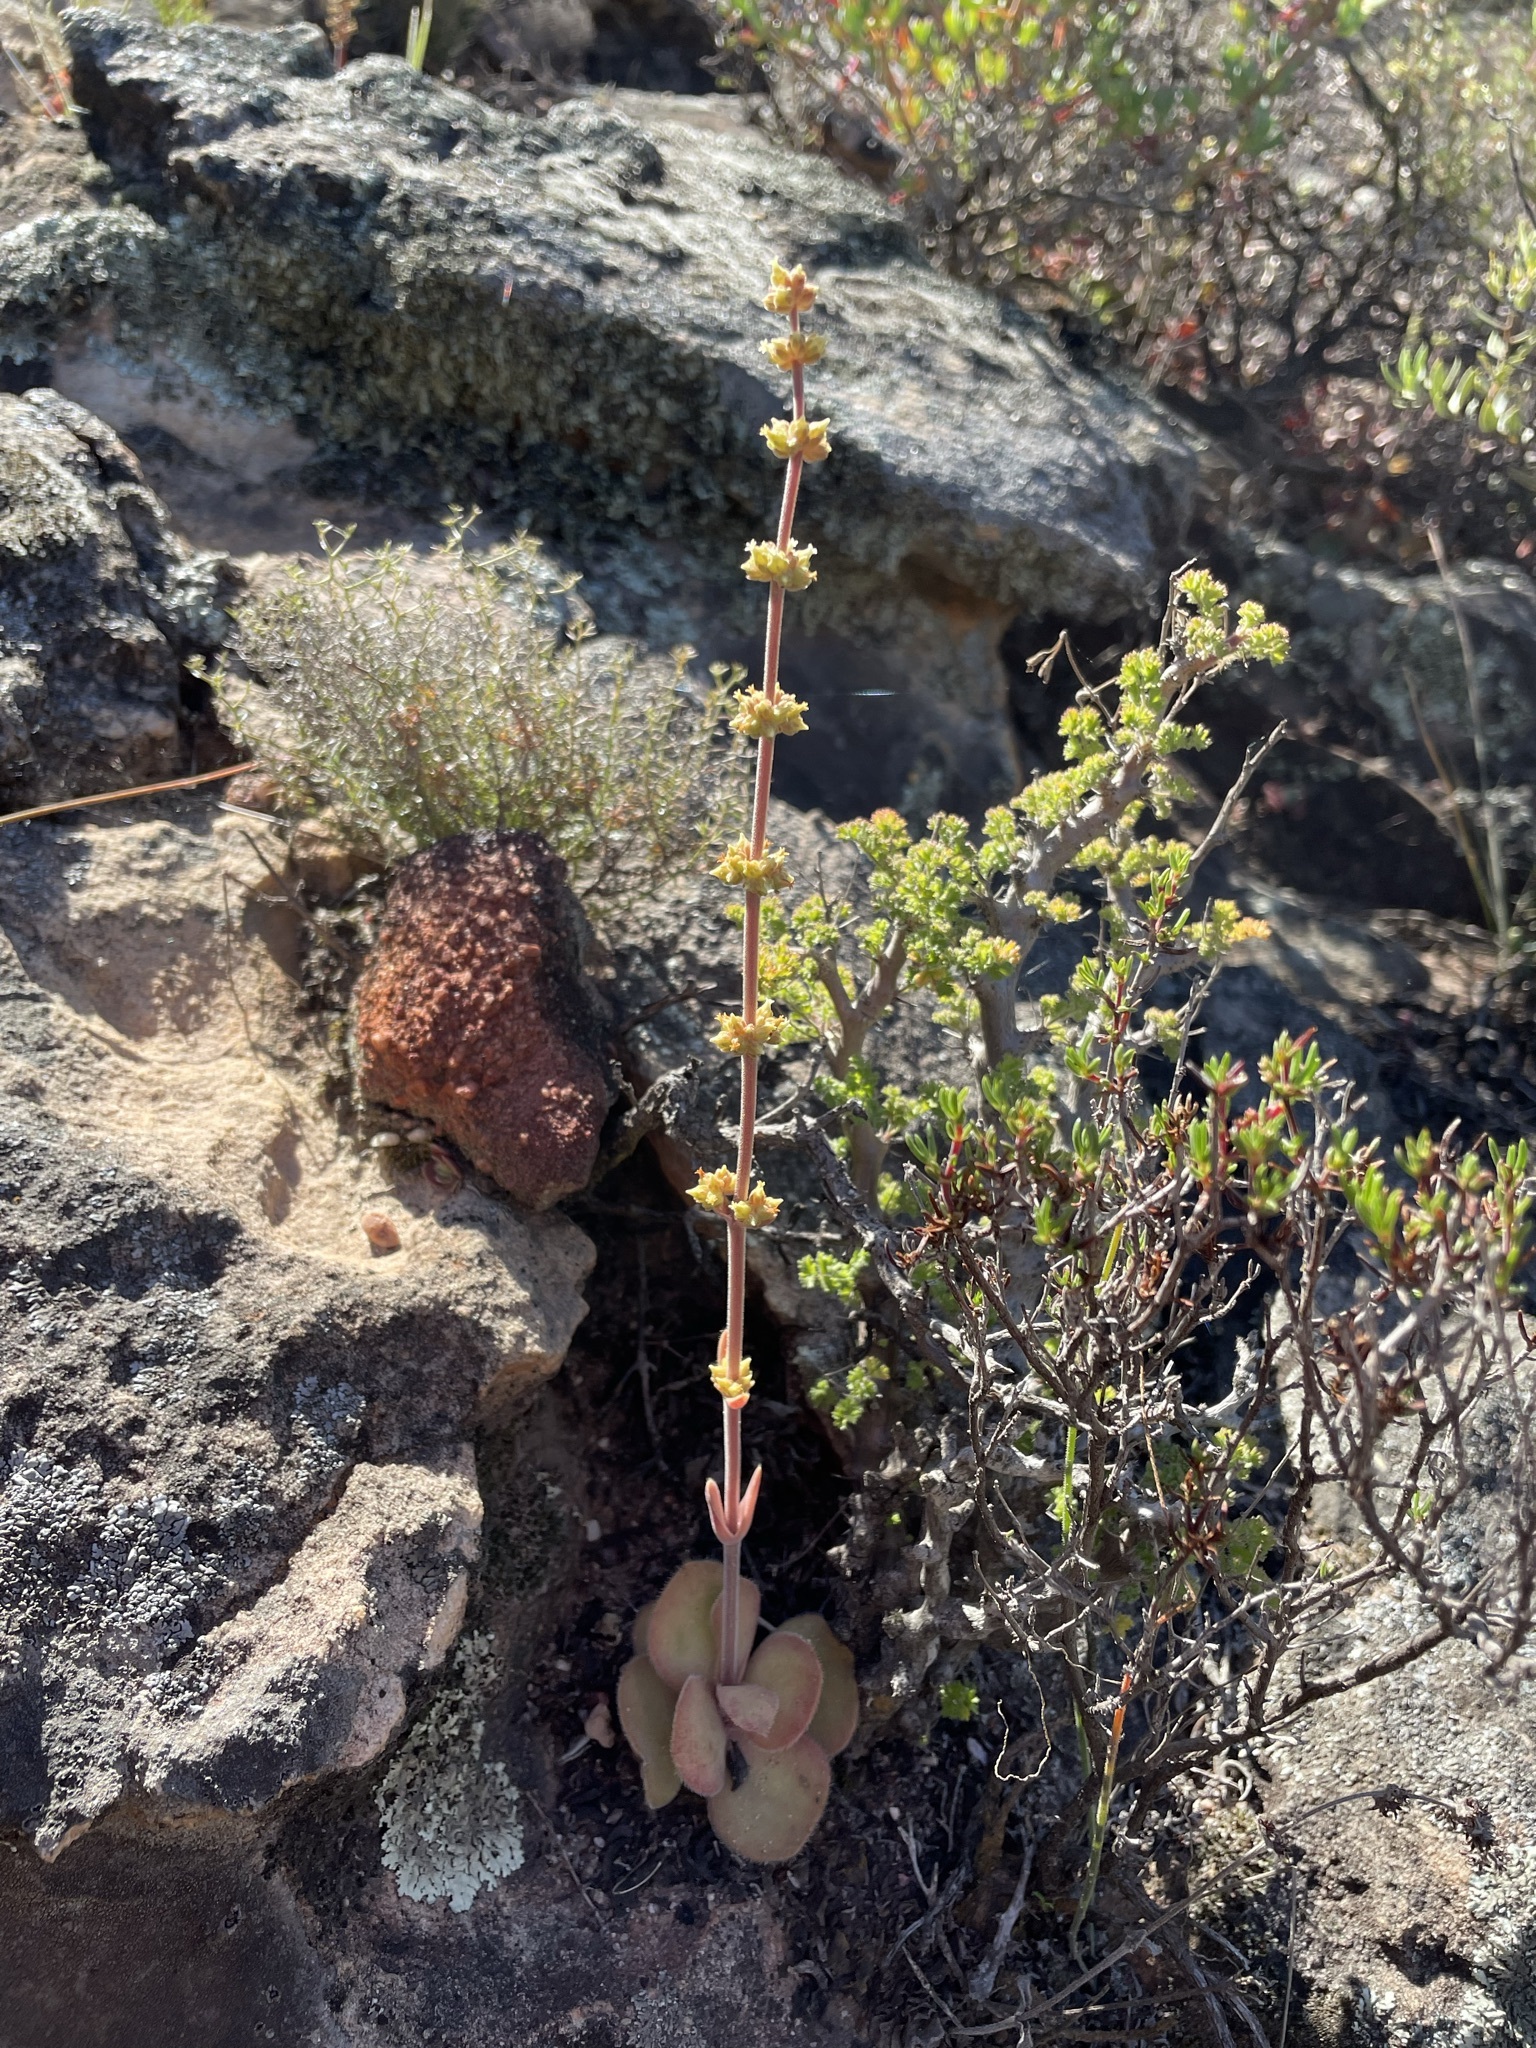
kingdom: Plantae
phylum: Tracheophyta
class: Magnoliopsida
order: Saxifragales
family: Crassulaceae
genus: Crassula
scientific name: Crassula tomentosa
